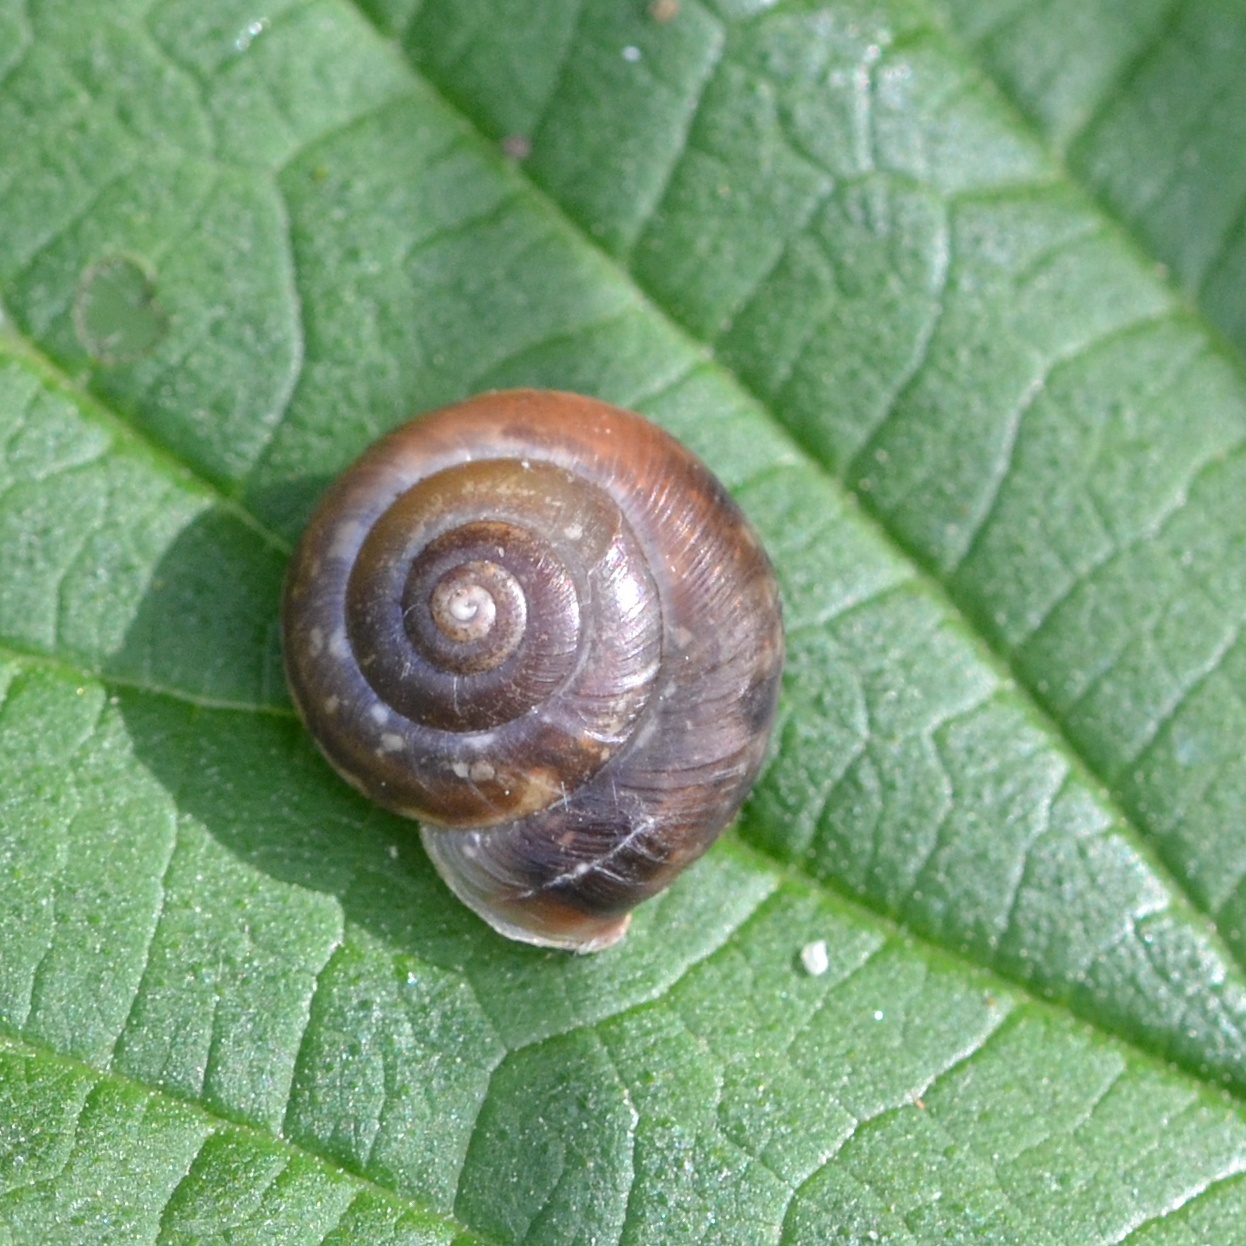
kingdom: Animalia
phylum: Mollusca
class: Gastropoda
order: Stylommatophora
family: Hygromiidae
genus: Urticicola
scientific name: Urticicola umbrosus
